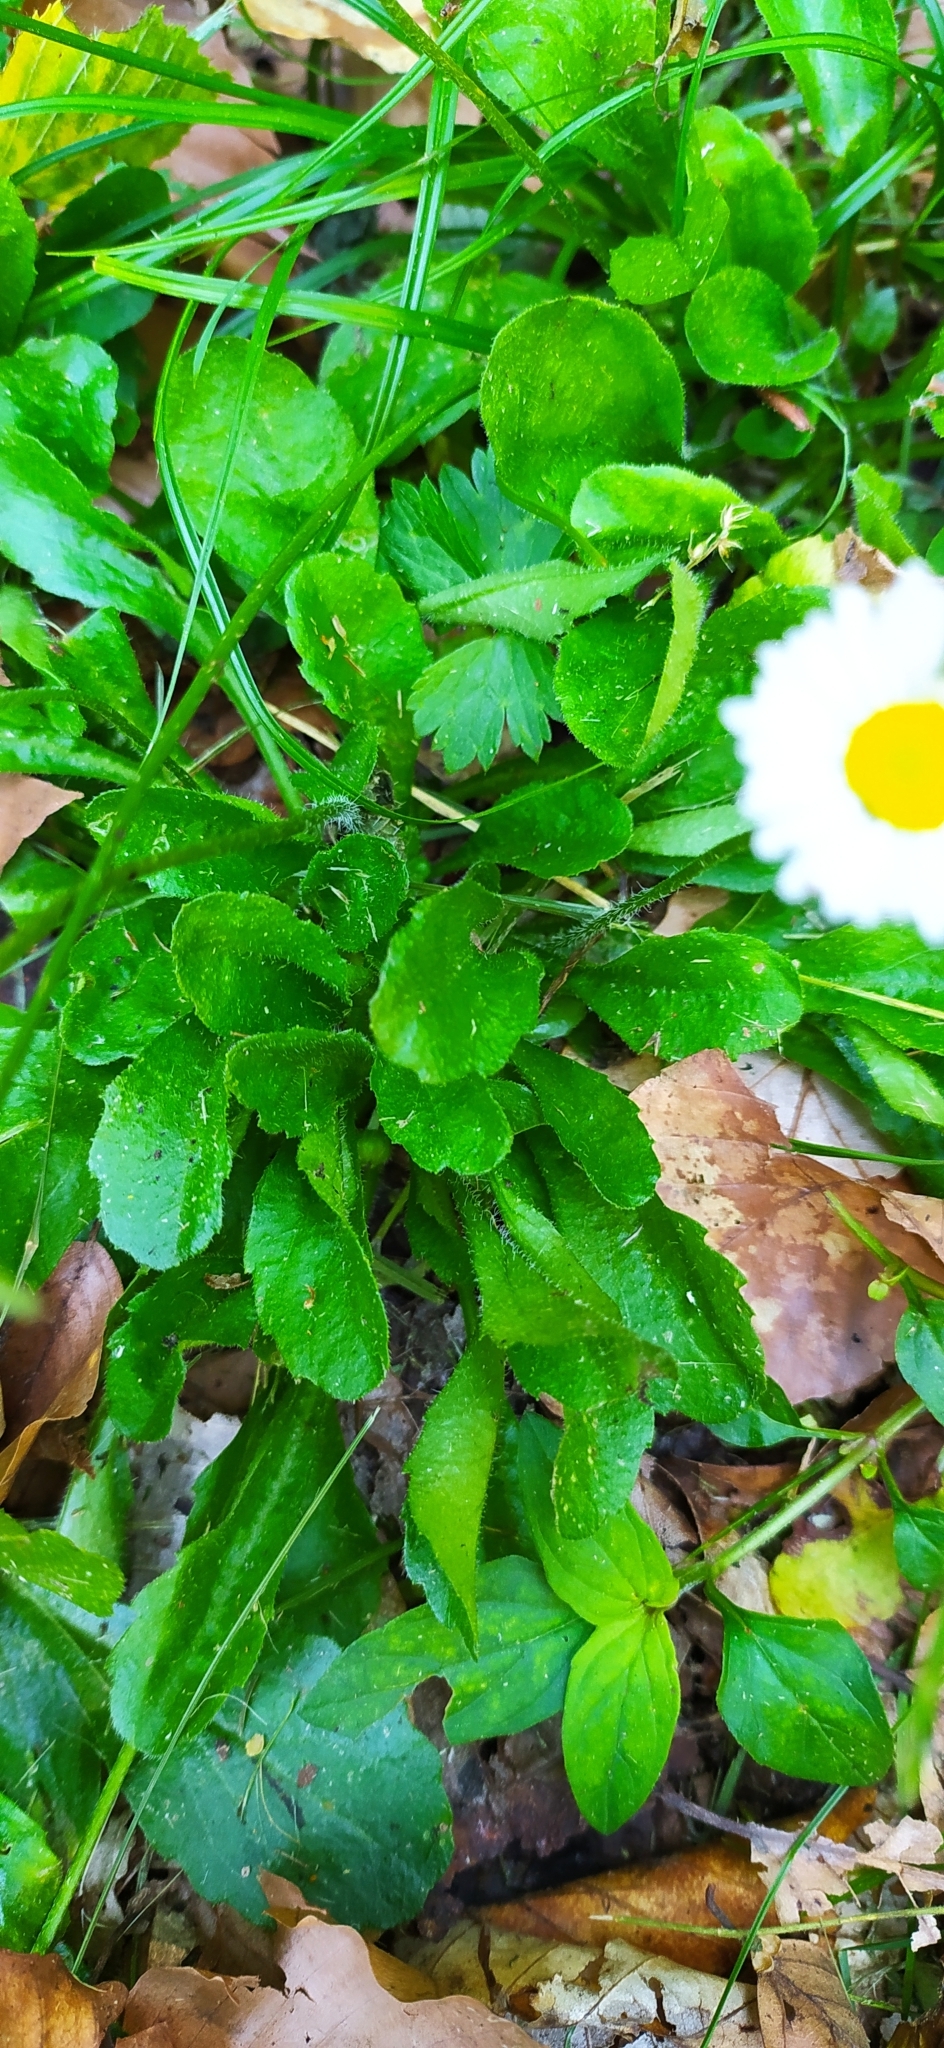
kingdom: Plantae
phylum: Tracheophyta
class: Magnoliopsida
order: Asterales
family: Asteraceae
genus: Bellis
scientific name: Bellis perennis
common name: Lawndaisy
